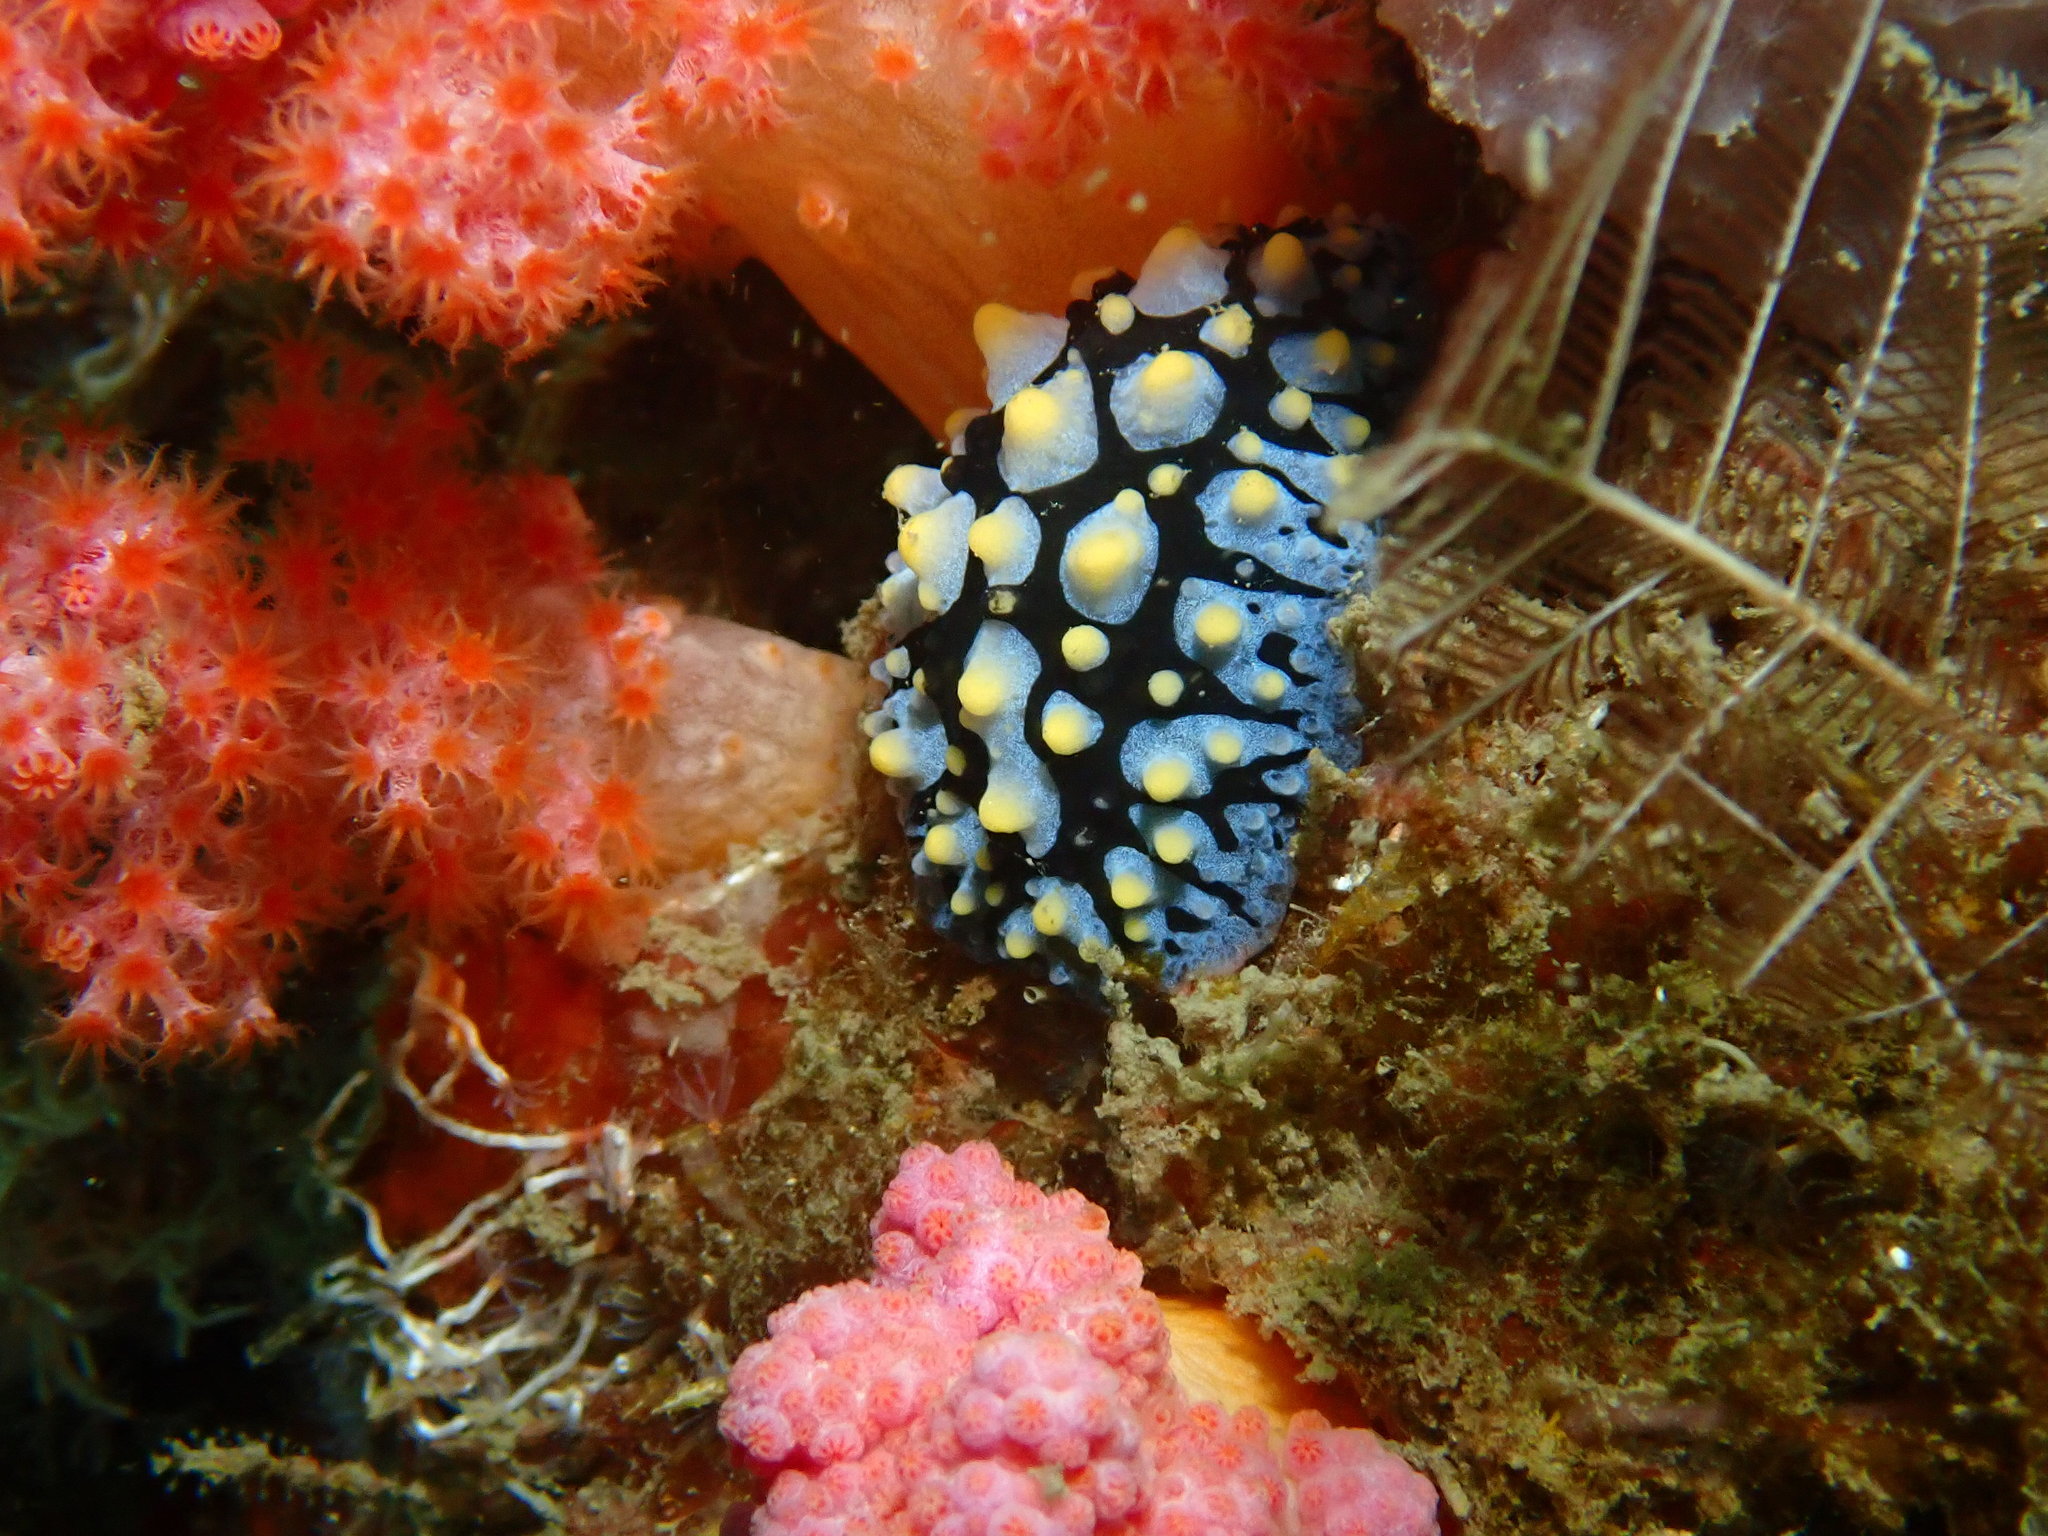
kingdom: Animalia
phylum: Mollusca
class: Gastropoda
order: Nudibranchia
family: Phyllidiidae
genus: Phyllidia
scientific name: Phyllidia picta
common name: Black-rayed phyllidia
